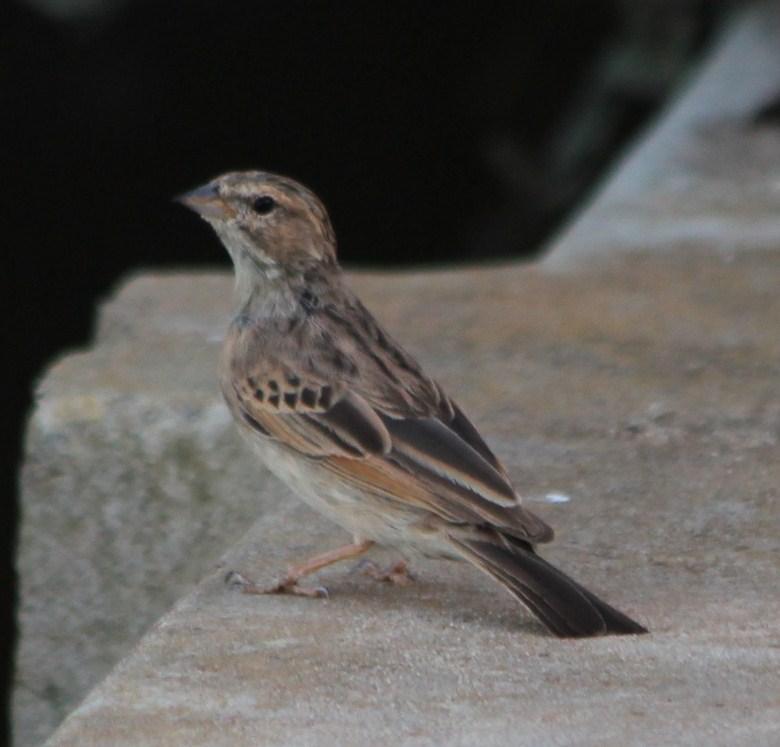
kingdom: Animalia
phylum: Chordata
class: Aves
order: Passeriformes
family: Emberizidae
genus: Emberiza
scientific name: Emberiza impetuani
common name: Lark-like bunting
